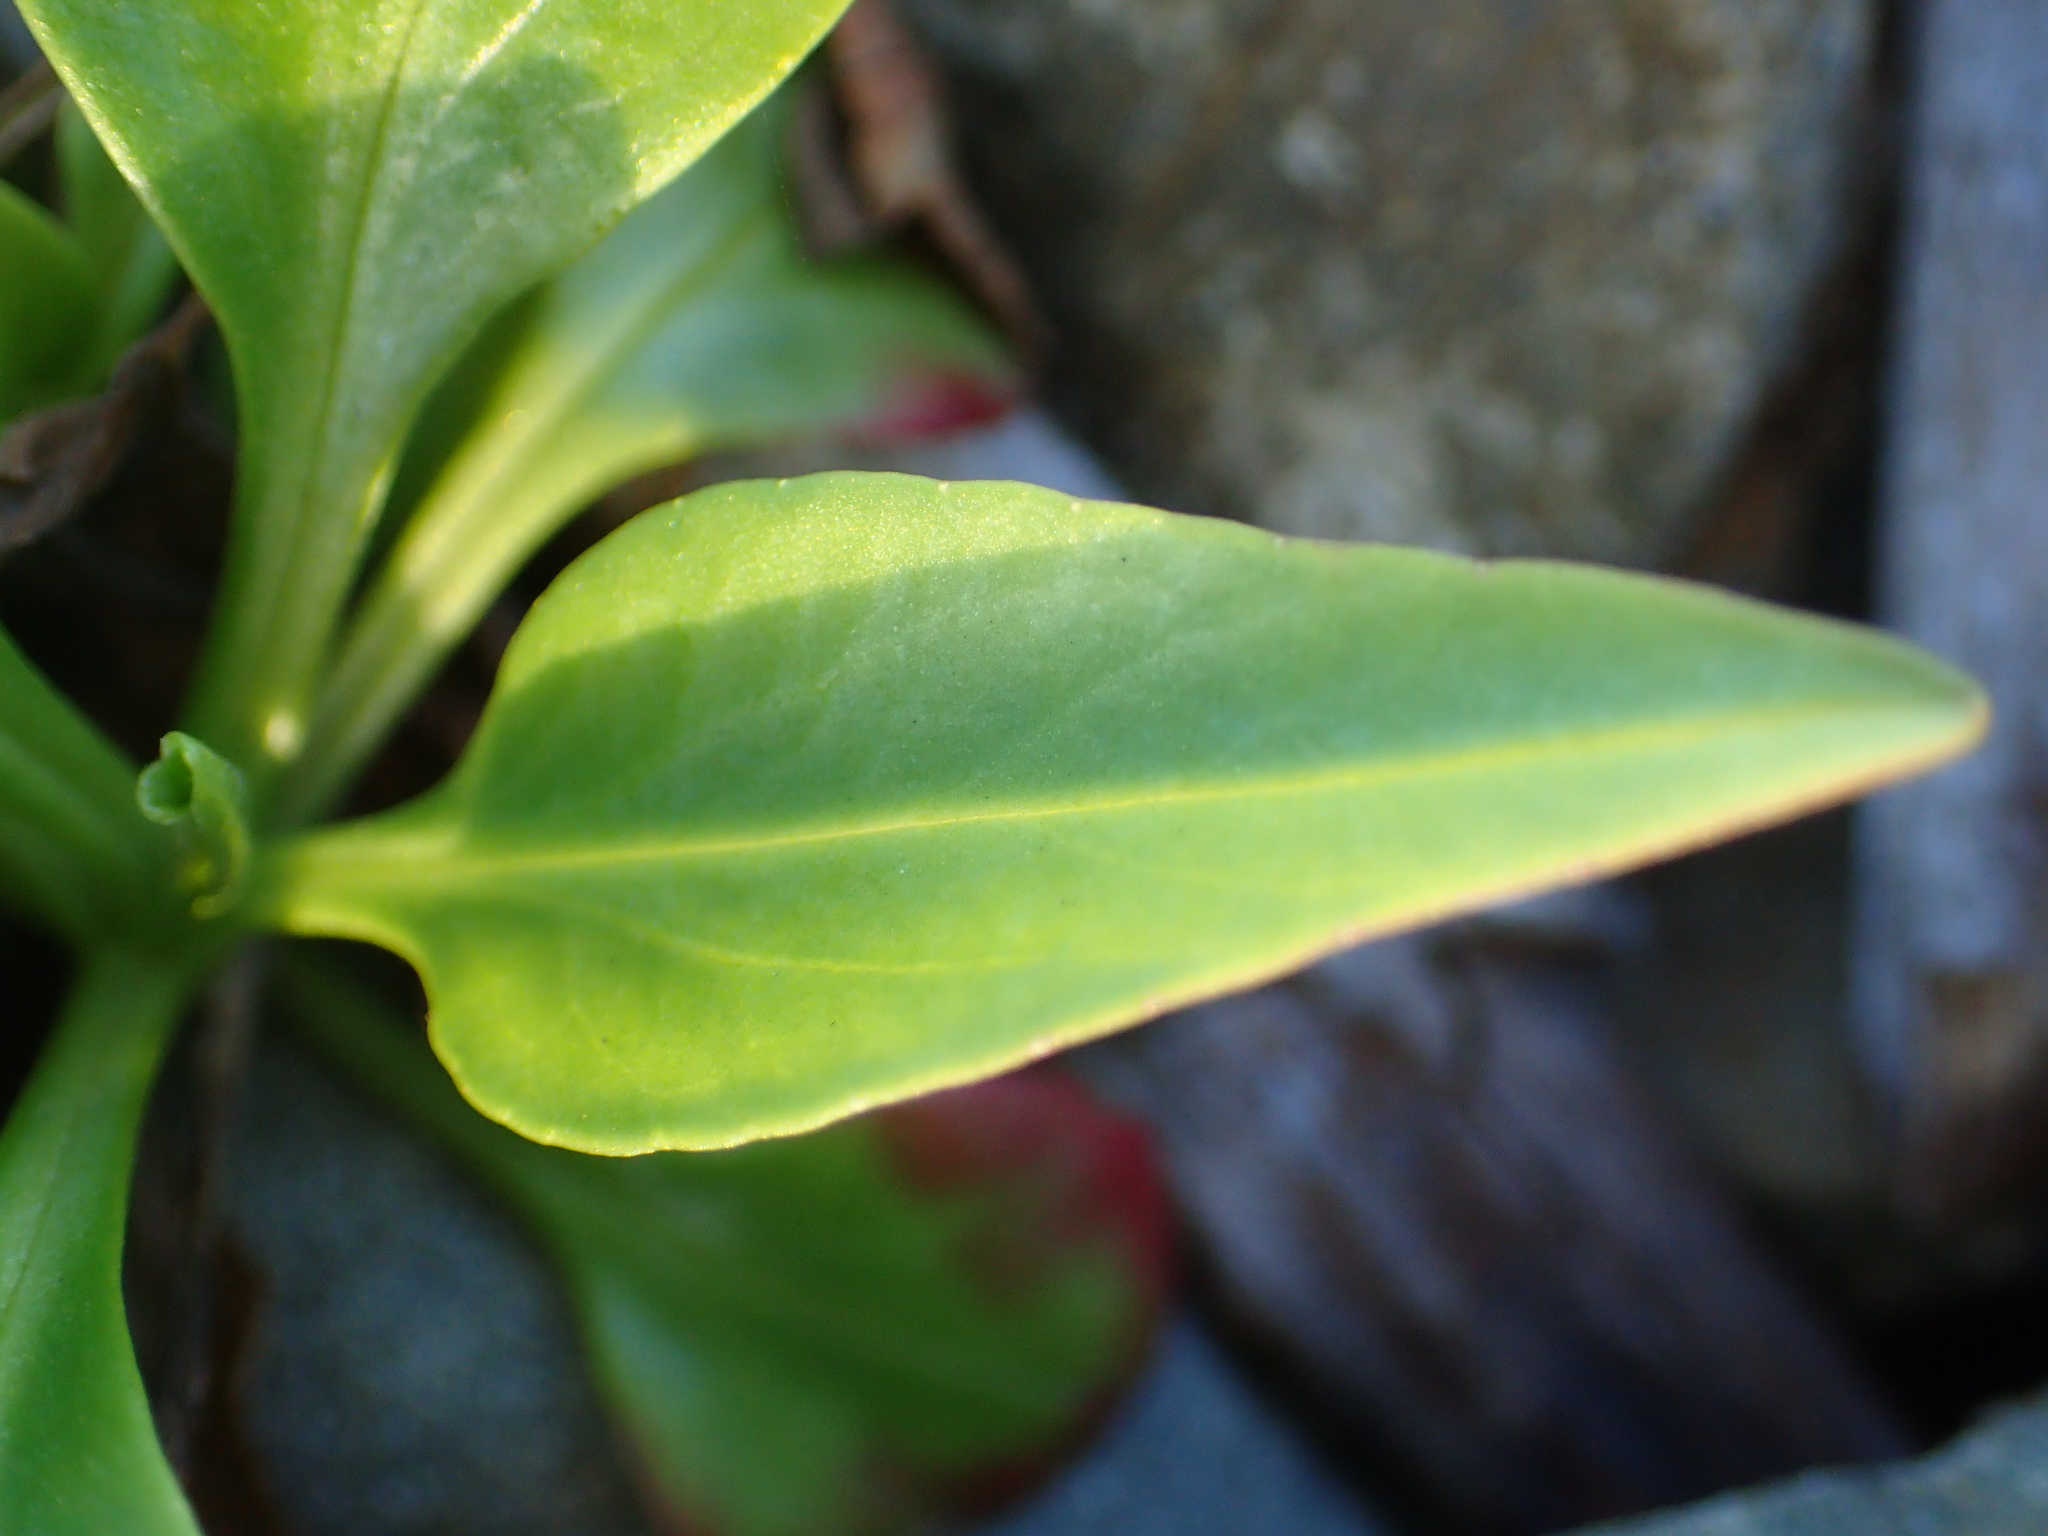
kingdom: Plantae
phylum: Tracheophyta
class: Magnoliopsida
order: Dipsacales
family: Caprifoliaceae
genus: Centranthus
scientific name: Centranthus ruber
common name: Red valerian
